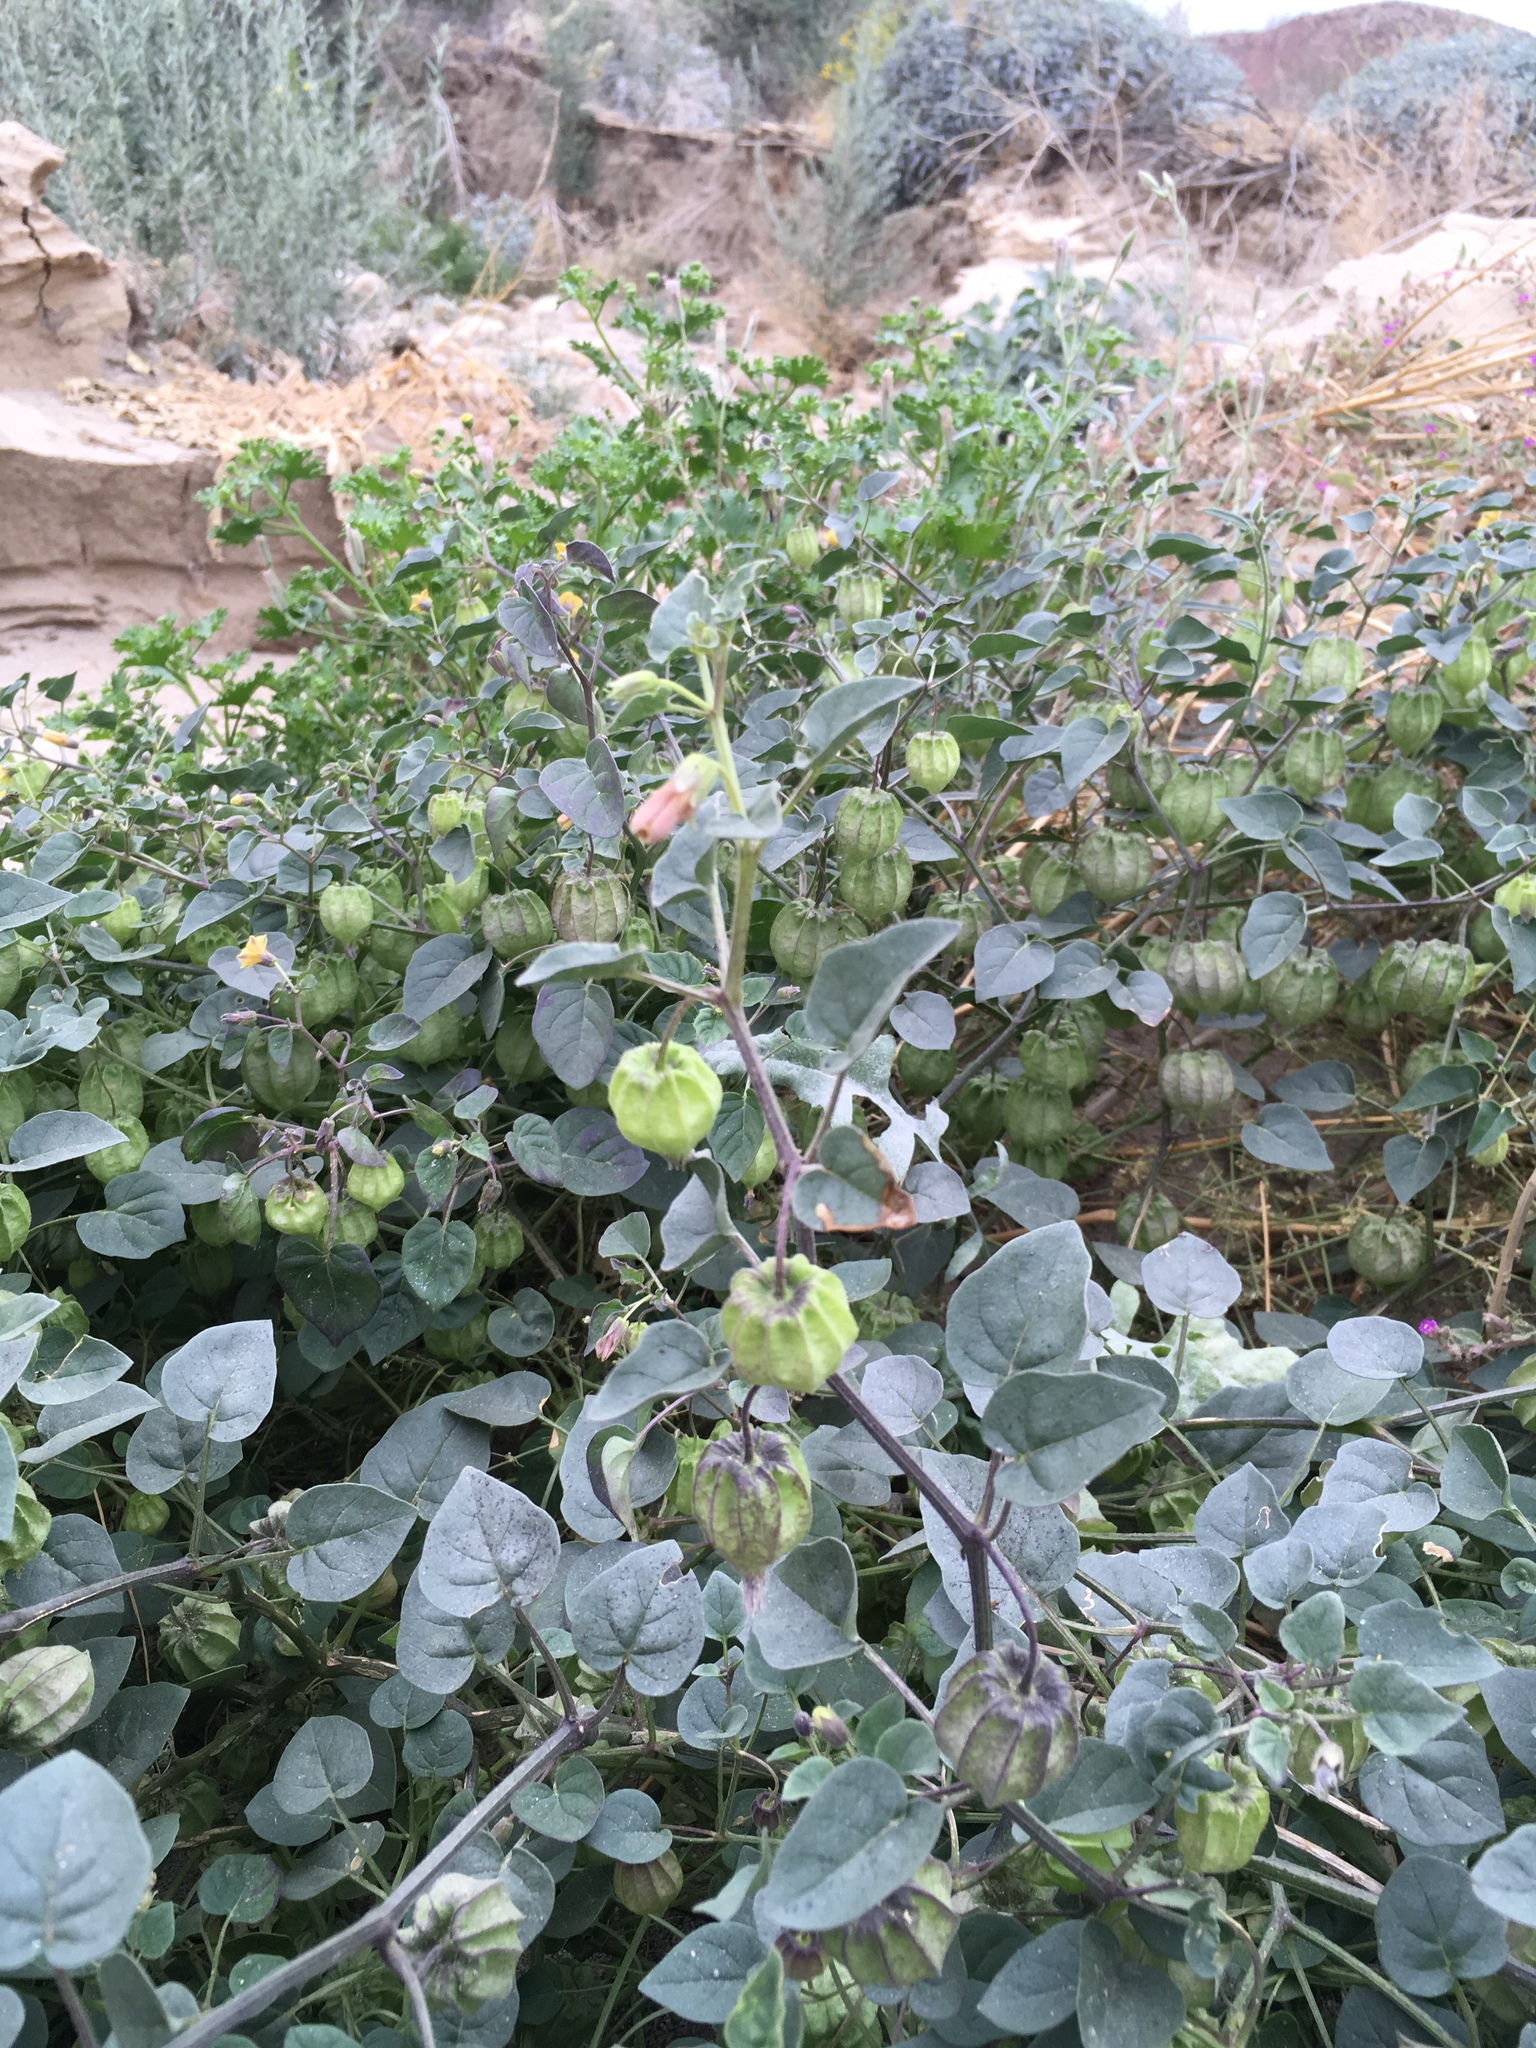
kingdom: Plantae
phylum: Tracheophyta
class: Magnoliopsida
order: Solanales
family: Solanaceae
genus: Physalis
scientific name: Physalis crassifolia
